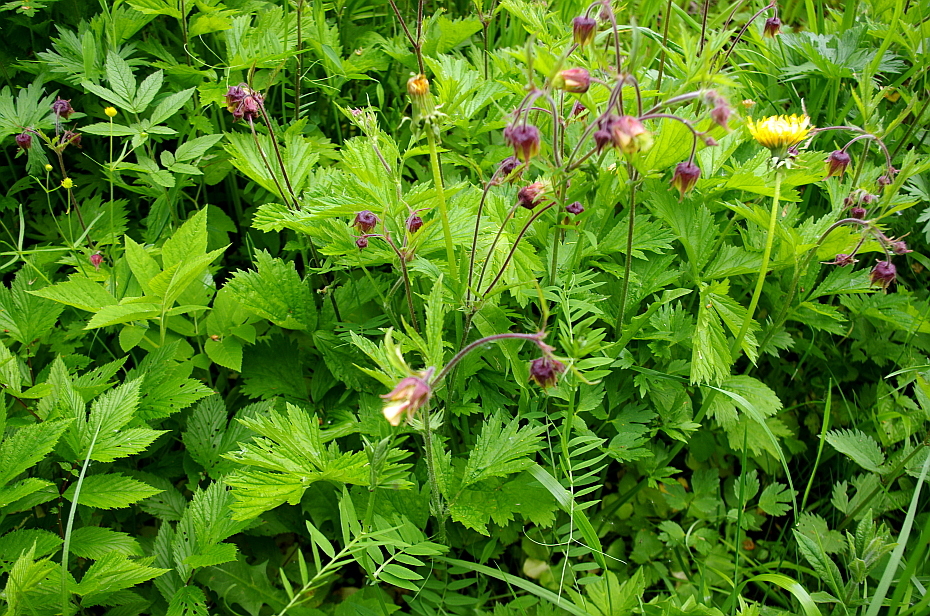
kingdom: Plantae
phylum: Tracheophyta
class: Magnoliopsida
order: Rosales
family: Rosaceae
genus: Geum
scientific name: Geum rivale
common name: Water avens
